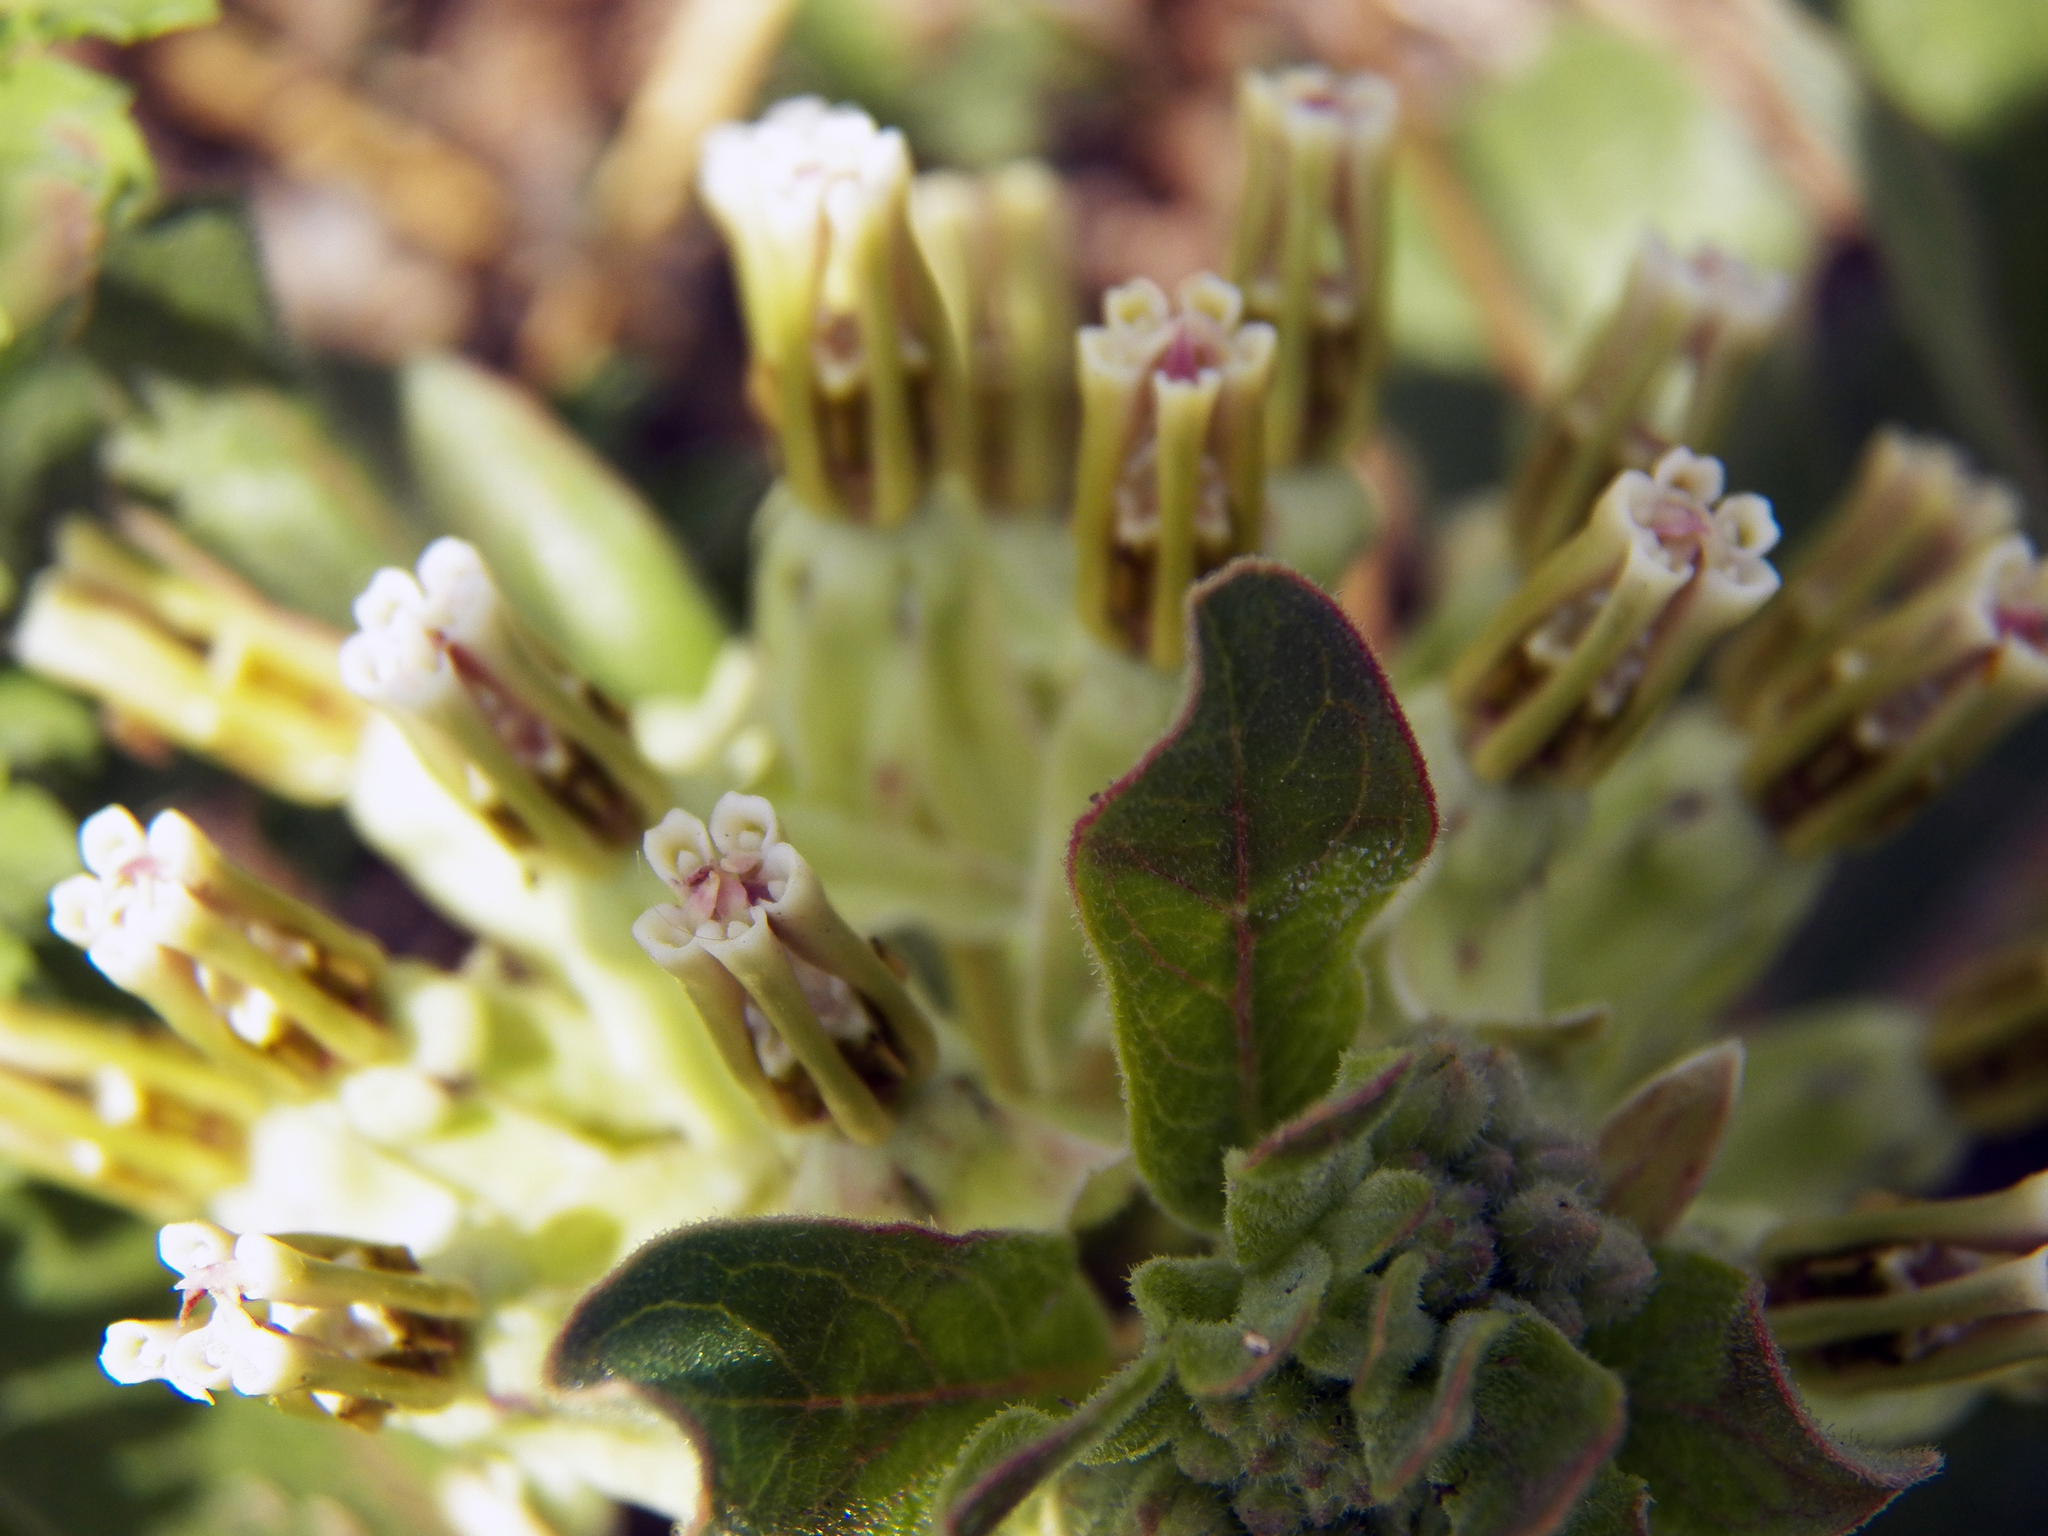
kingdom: Plantae
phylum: Tracheophyta
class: Magnoliopsida
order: Gentianales
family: Apocynaceae
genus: Asclepias
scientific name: Asclepias oenotheroides
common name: Zizotes milkweed
